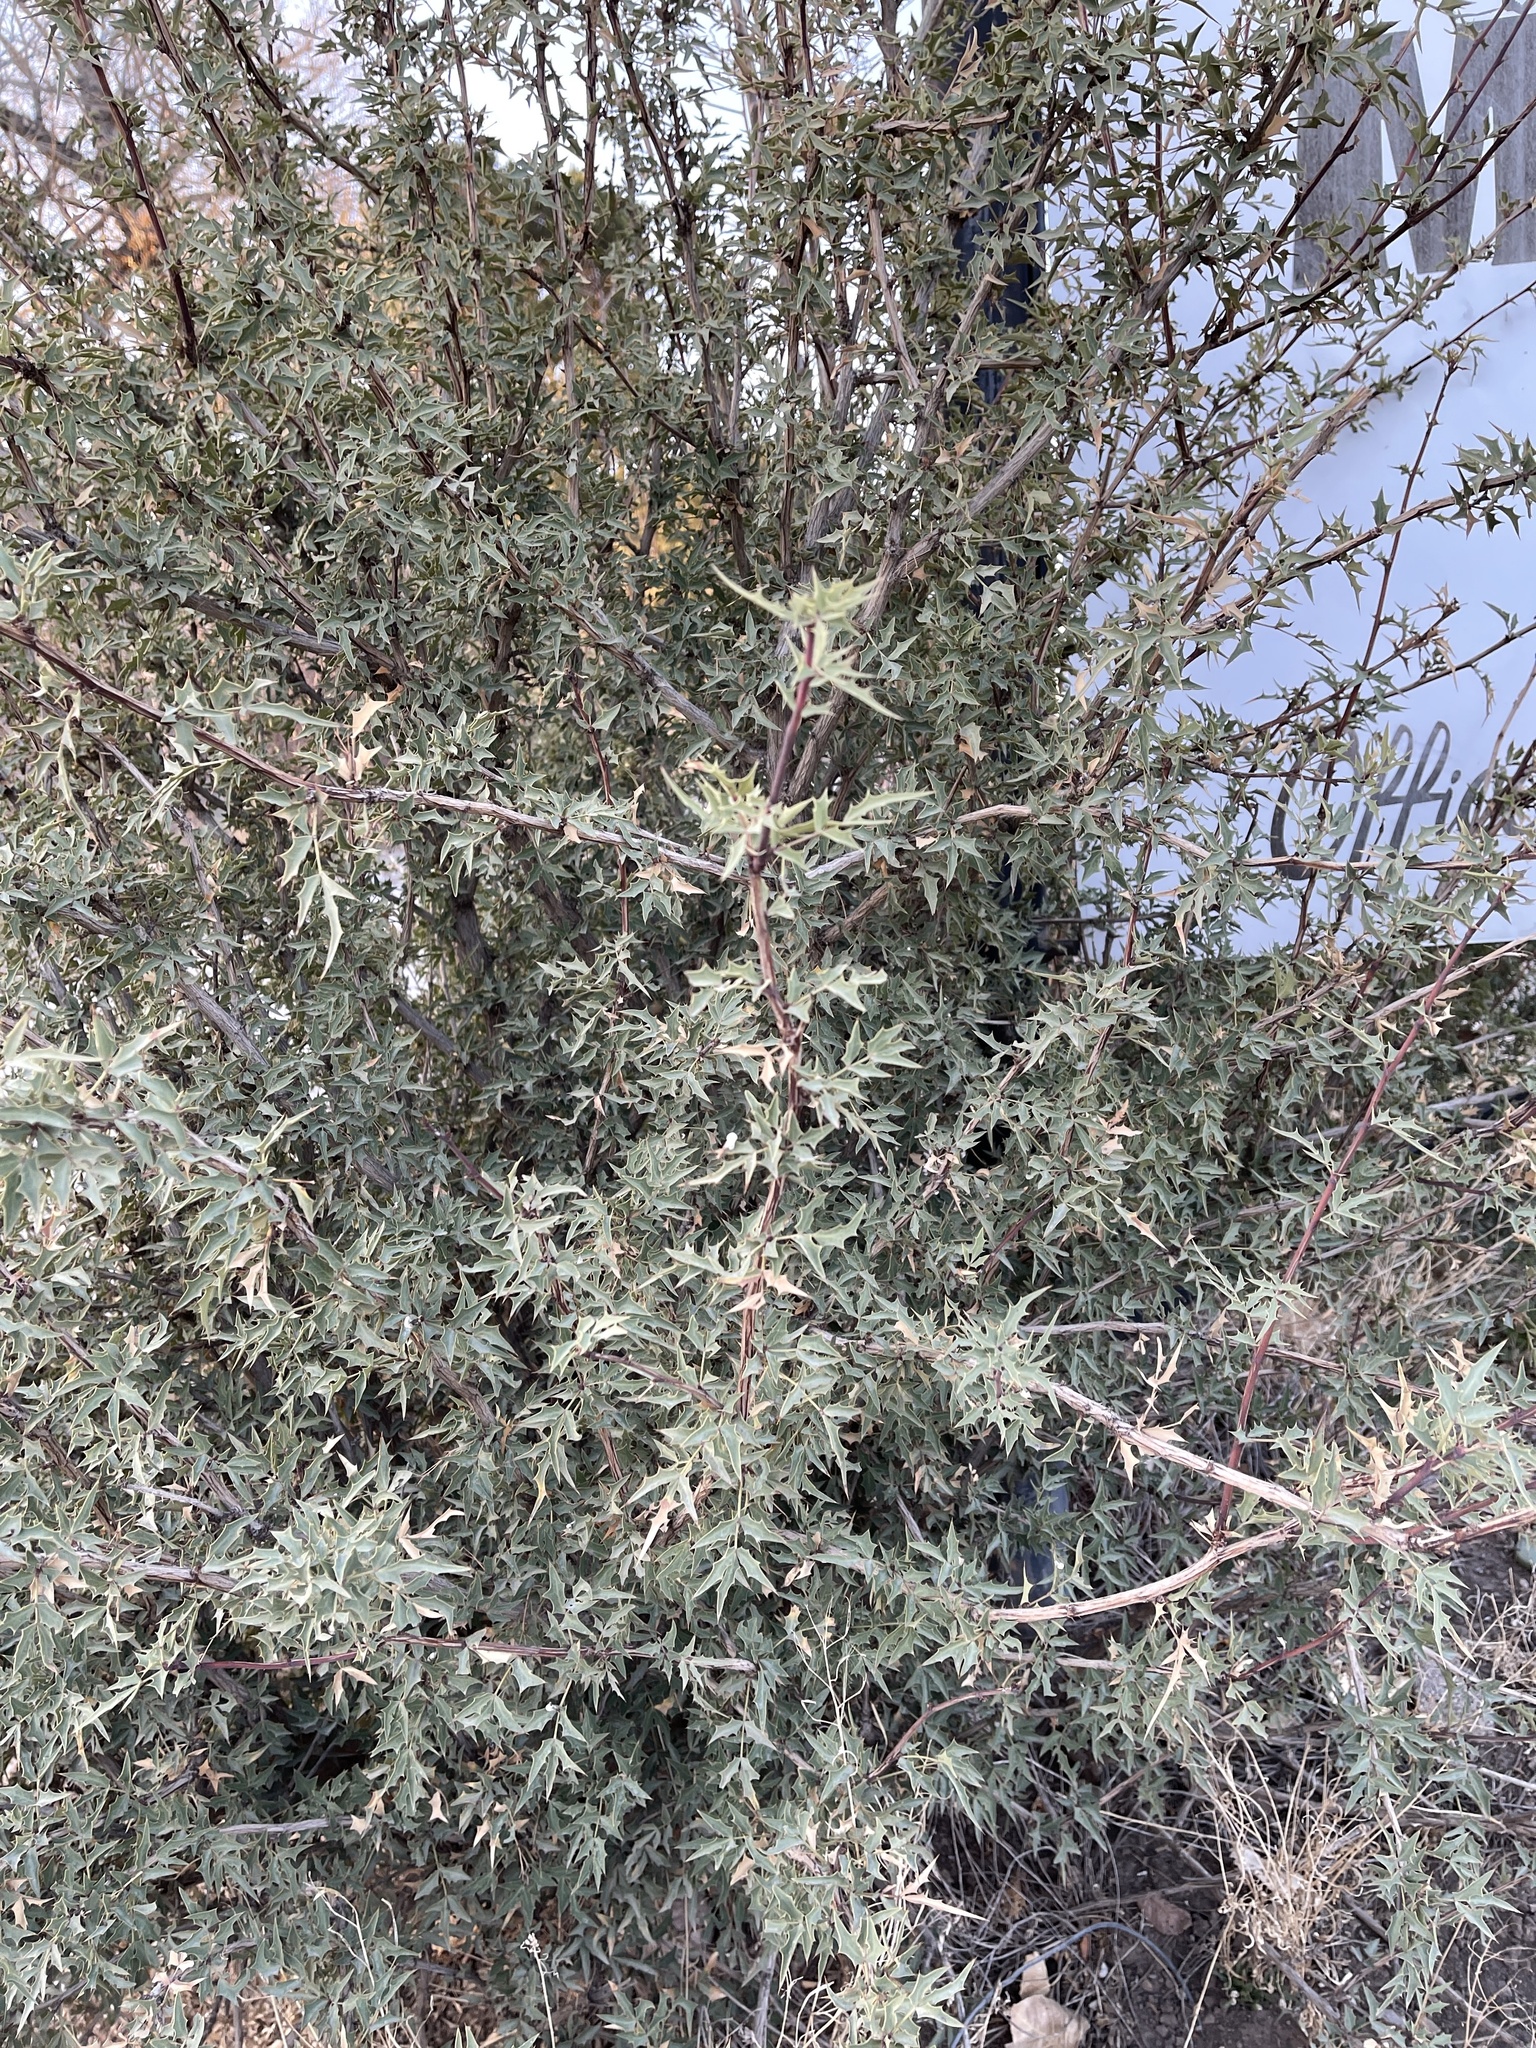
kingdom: Plantae
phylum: Tracheophyta
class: Magnoliopsida
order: Ranunculales
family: Berberidaceae
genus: Alloberberis
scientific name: Alloberberis haematocarpa
